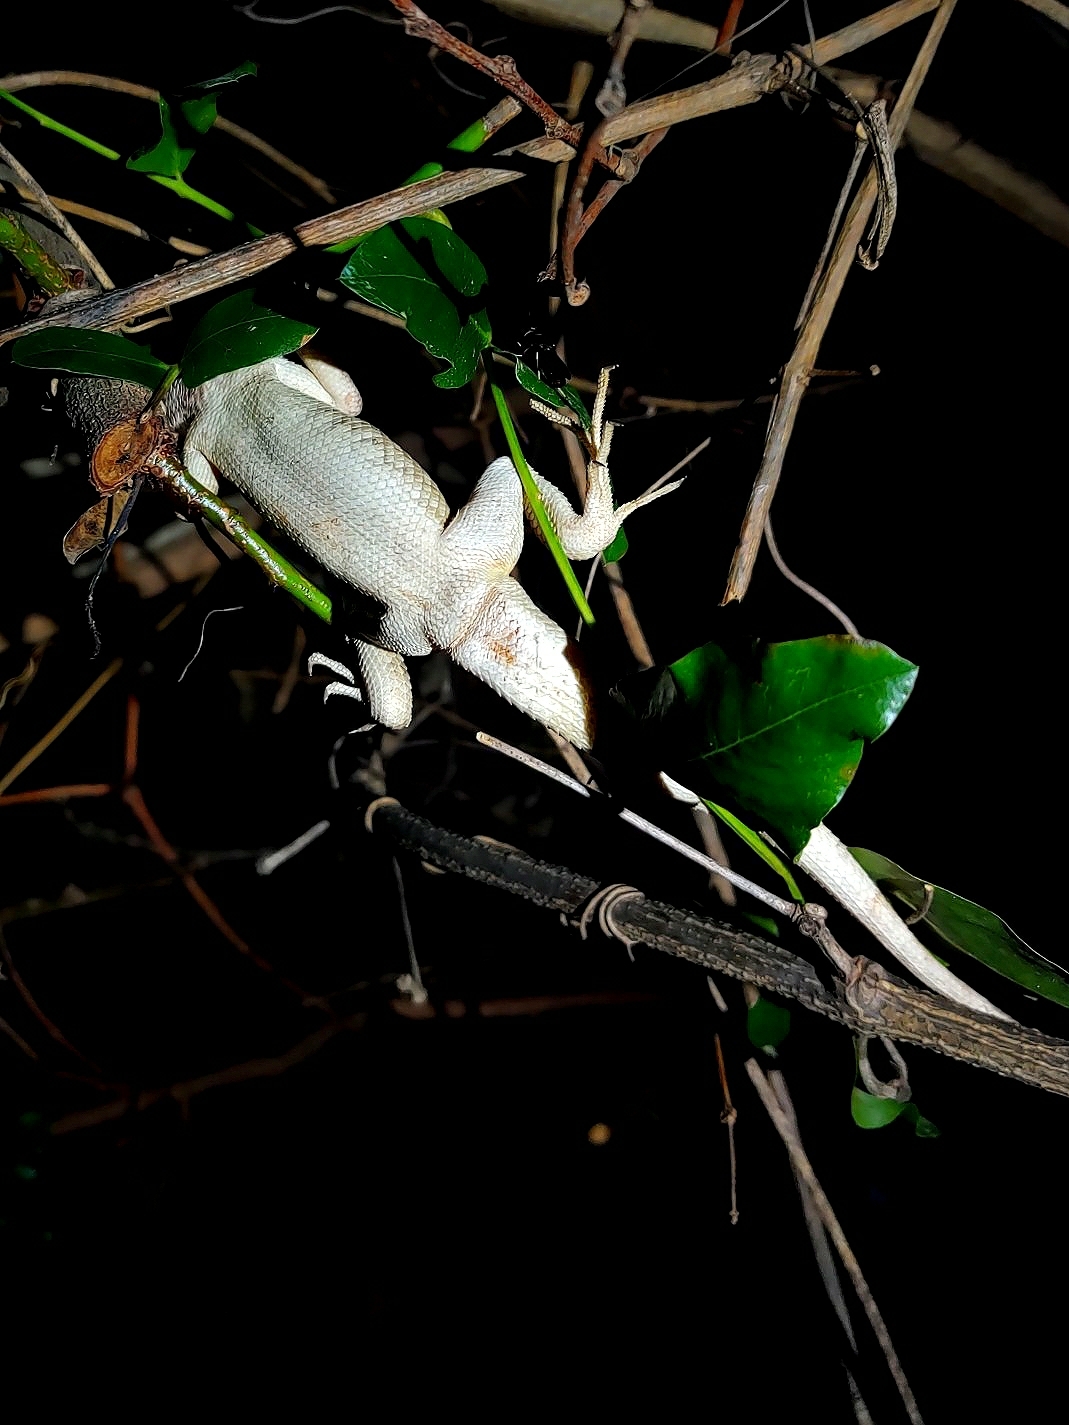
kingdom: Animalia
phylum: Chordata
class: Squamata
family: Agamidae
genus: Calotes
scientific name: Calotes versicolor
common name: Oriental garden lizard
